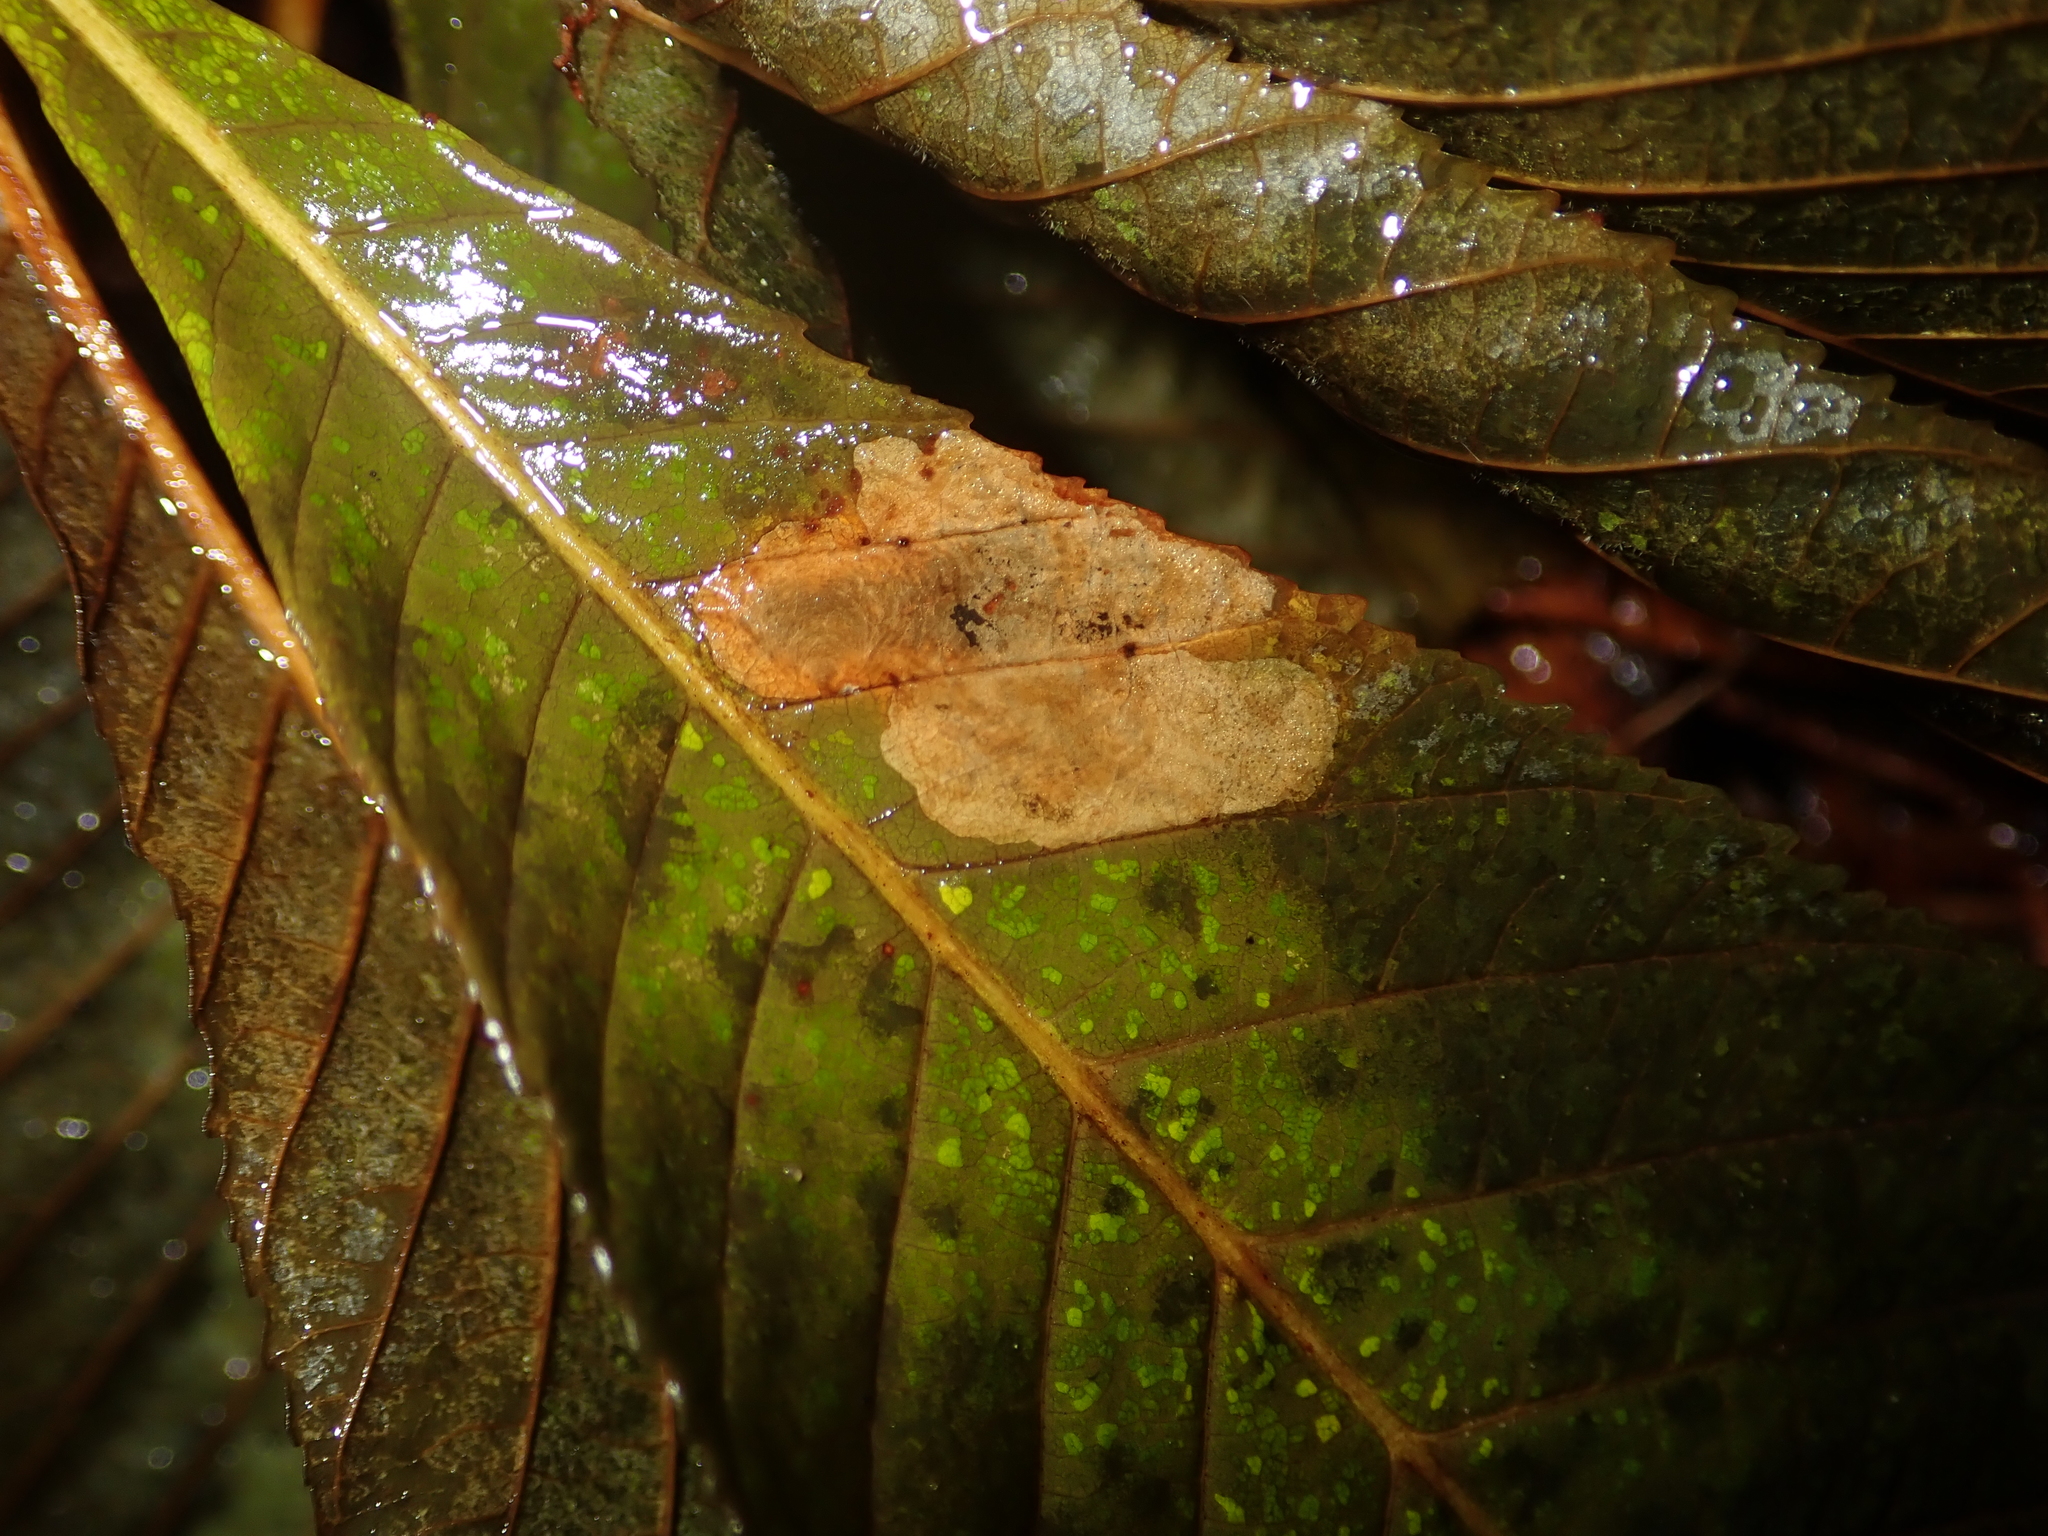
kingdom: Animalia
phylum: Arthropoda
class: Insecta
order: Lepidoptera
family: Gracillariidae
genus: Cameraria
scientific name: Cameraria ohridella
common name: Horse-chestnut leaf-miner
